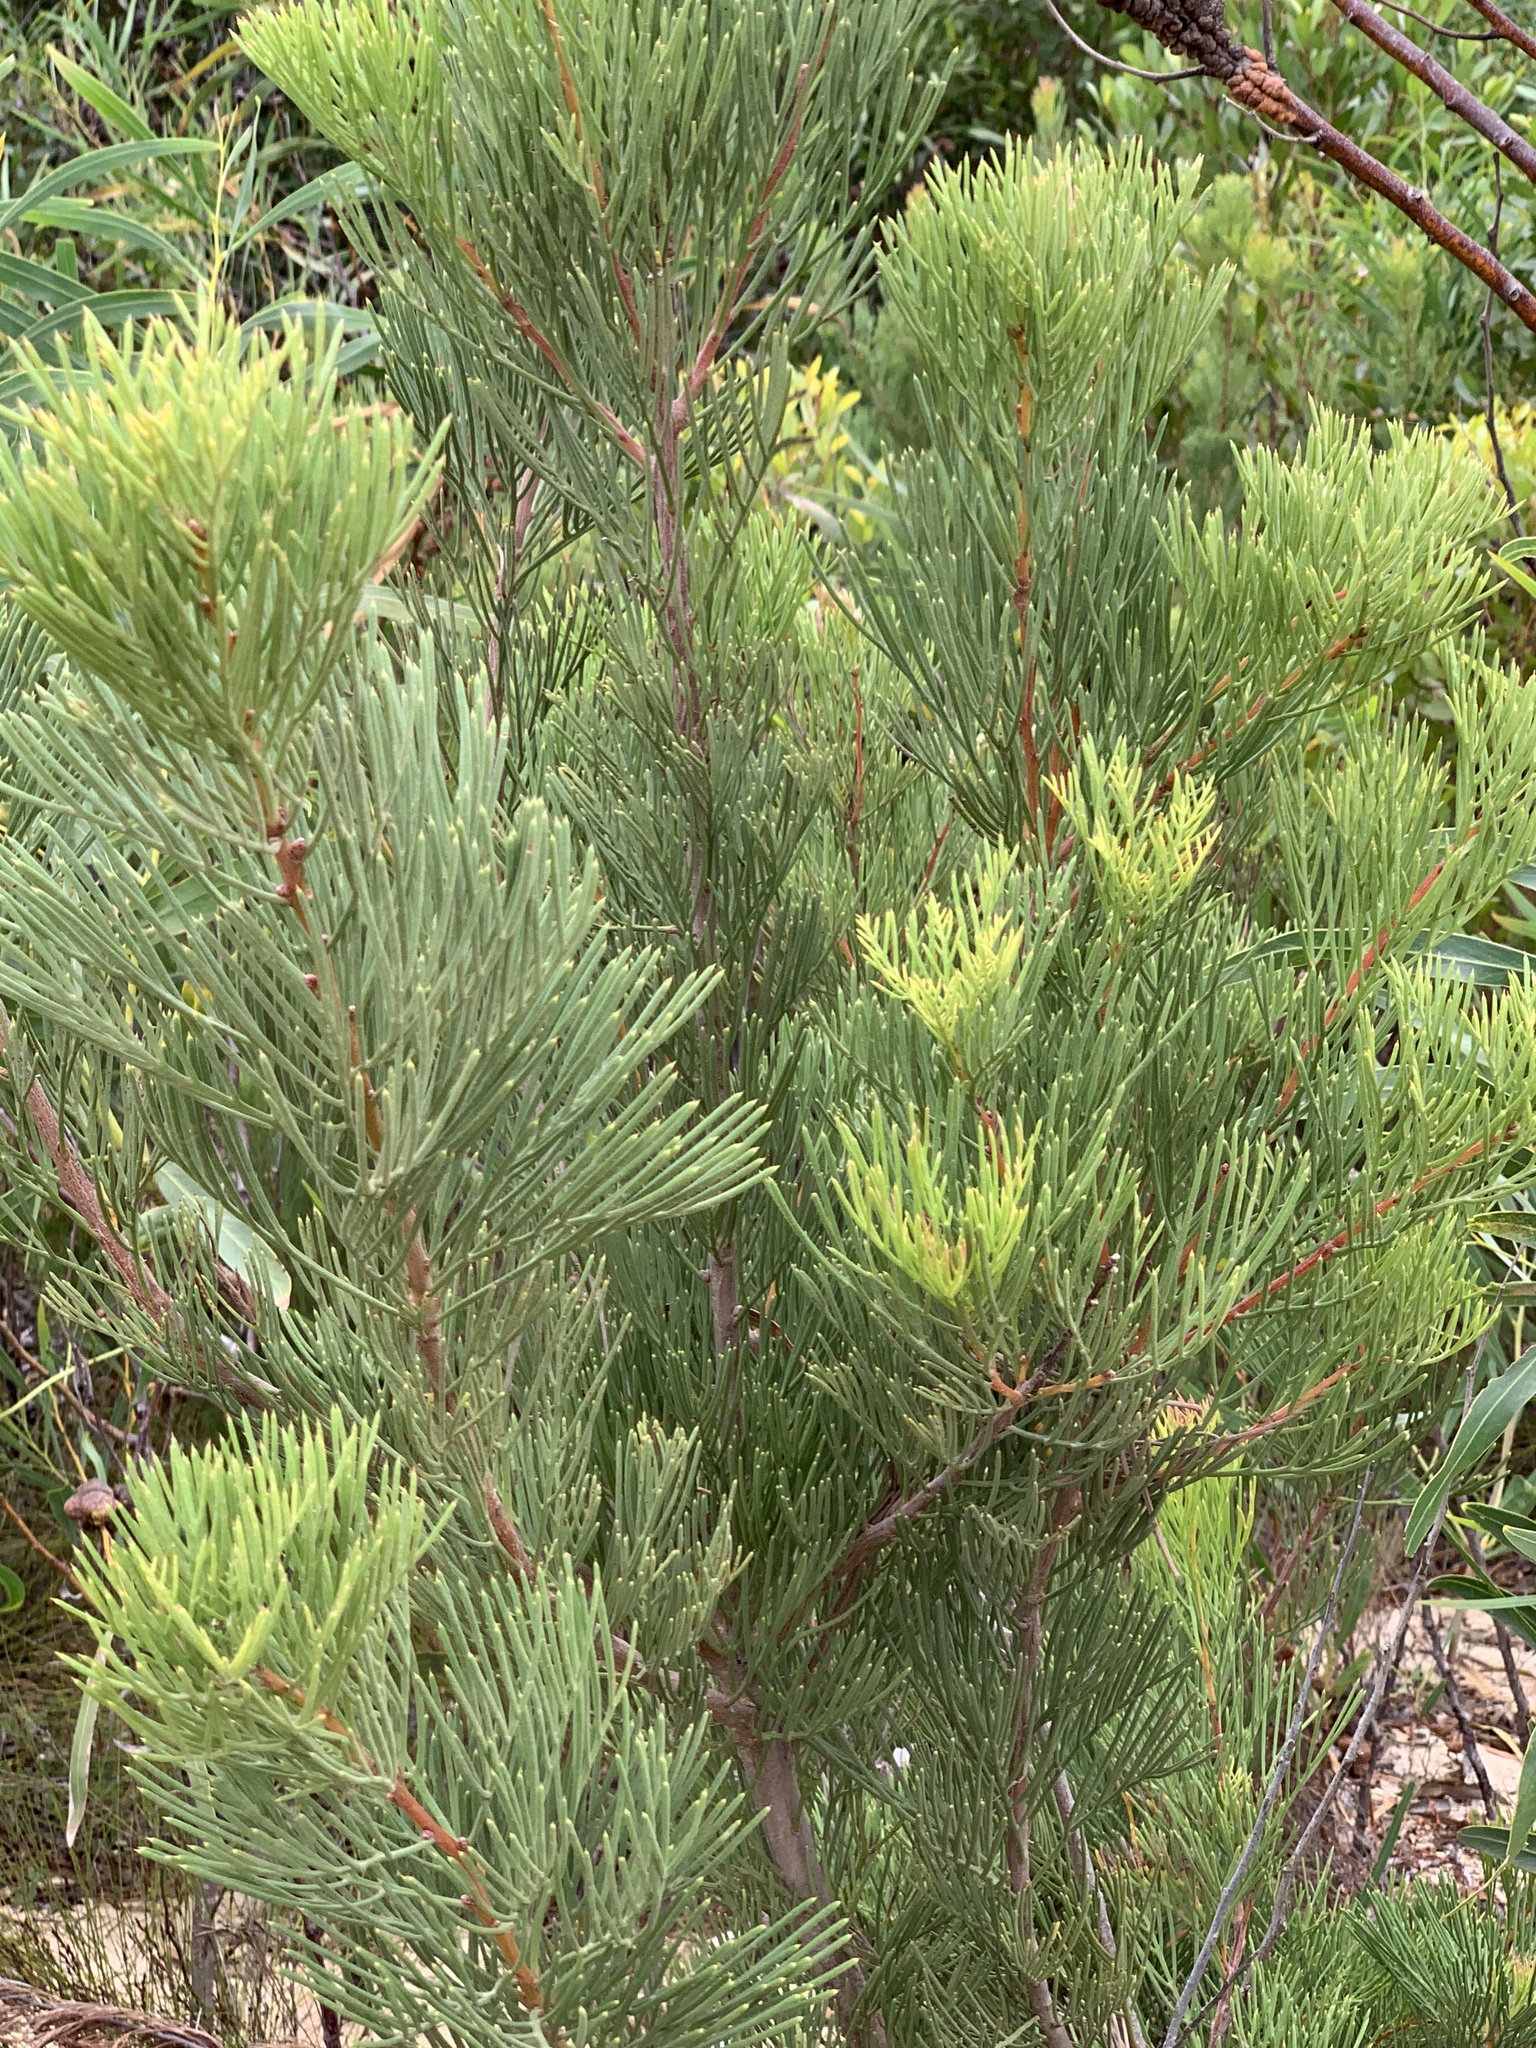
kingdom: Plantae
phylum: Tracheophyta
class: Magnoliopsida
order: Proteales
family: Proteaceae
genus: Hakea
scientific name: Hakea drupacea
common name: Sweet hakea
